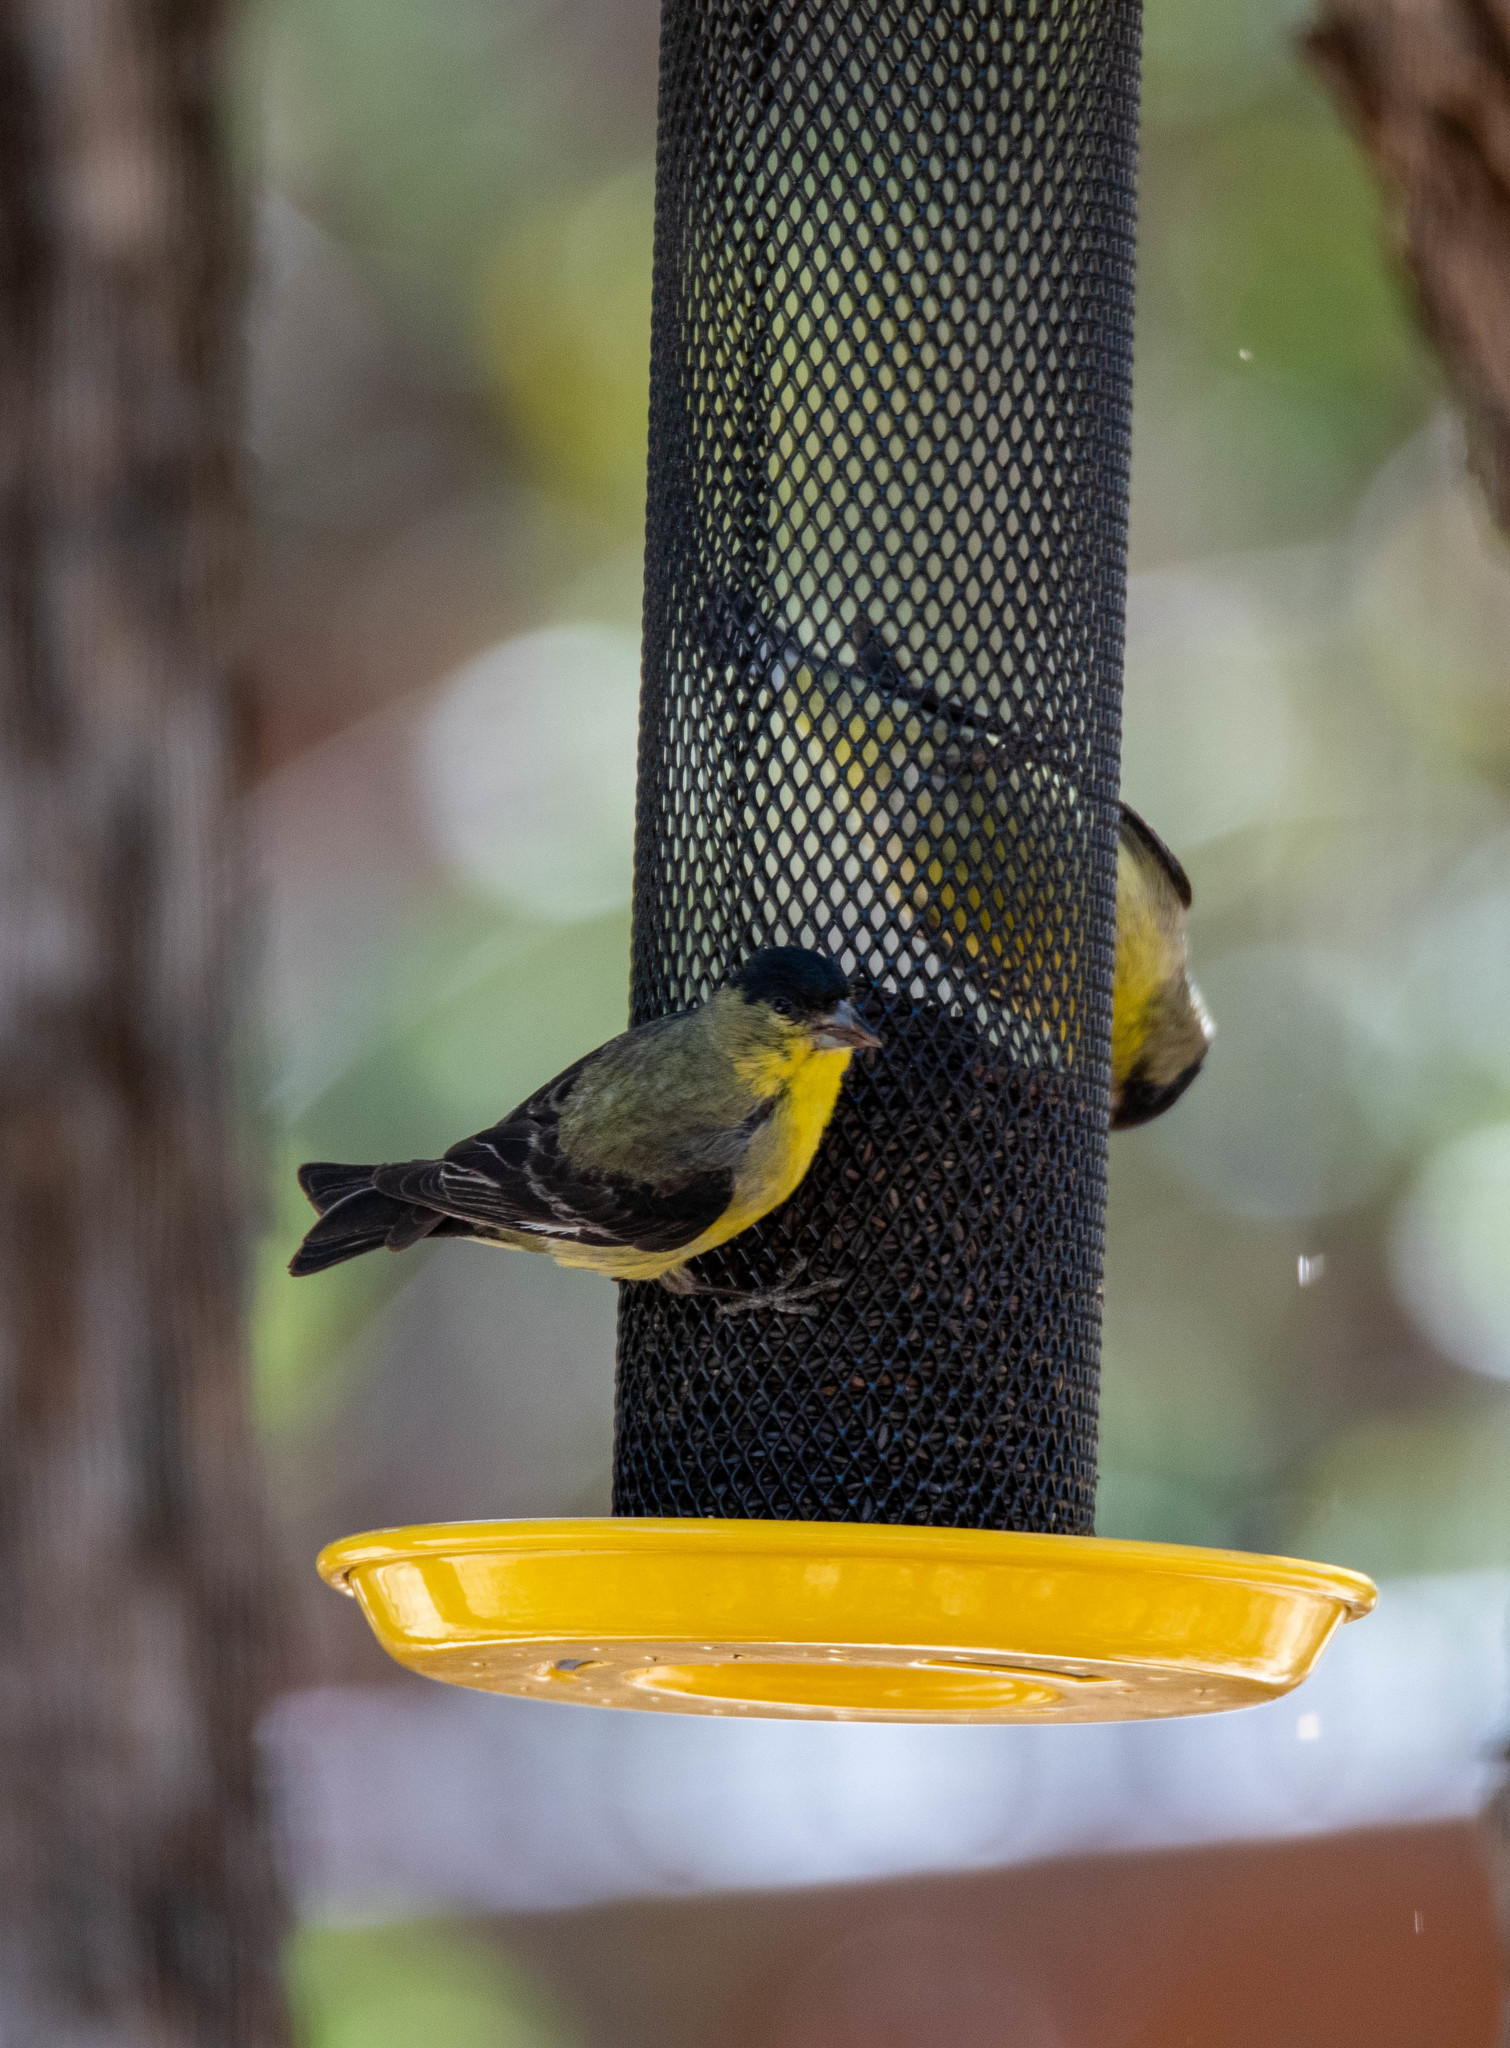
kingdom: Animalia
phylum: Chordata
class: Aves
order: Passeriformes
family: Fringillidae
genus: Spinus
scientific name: Spinus psaltria
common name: Lesser goldfinch
